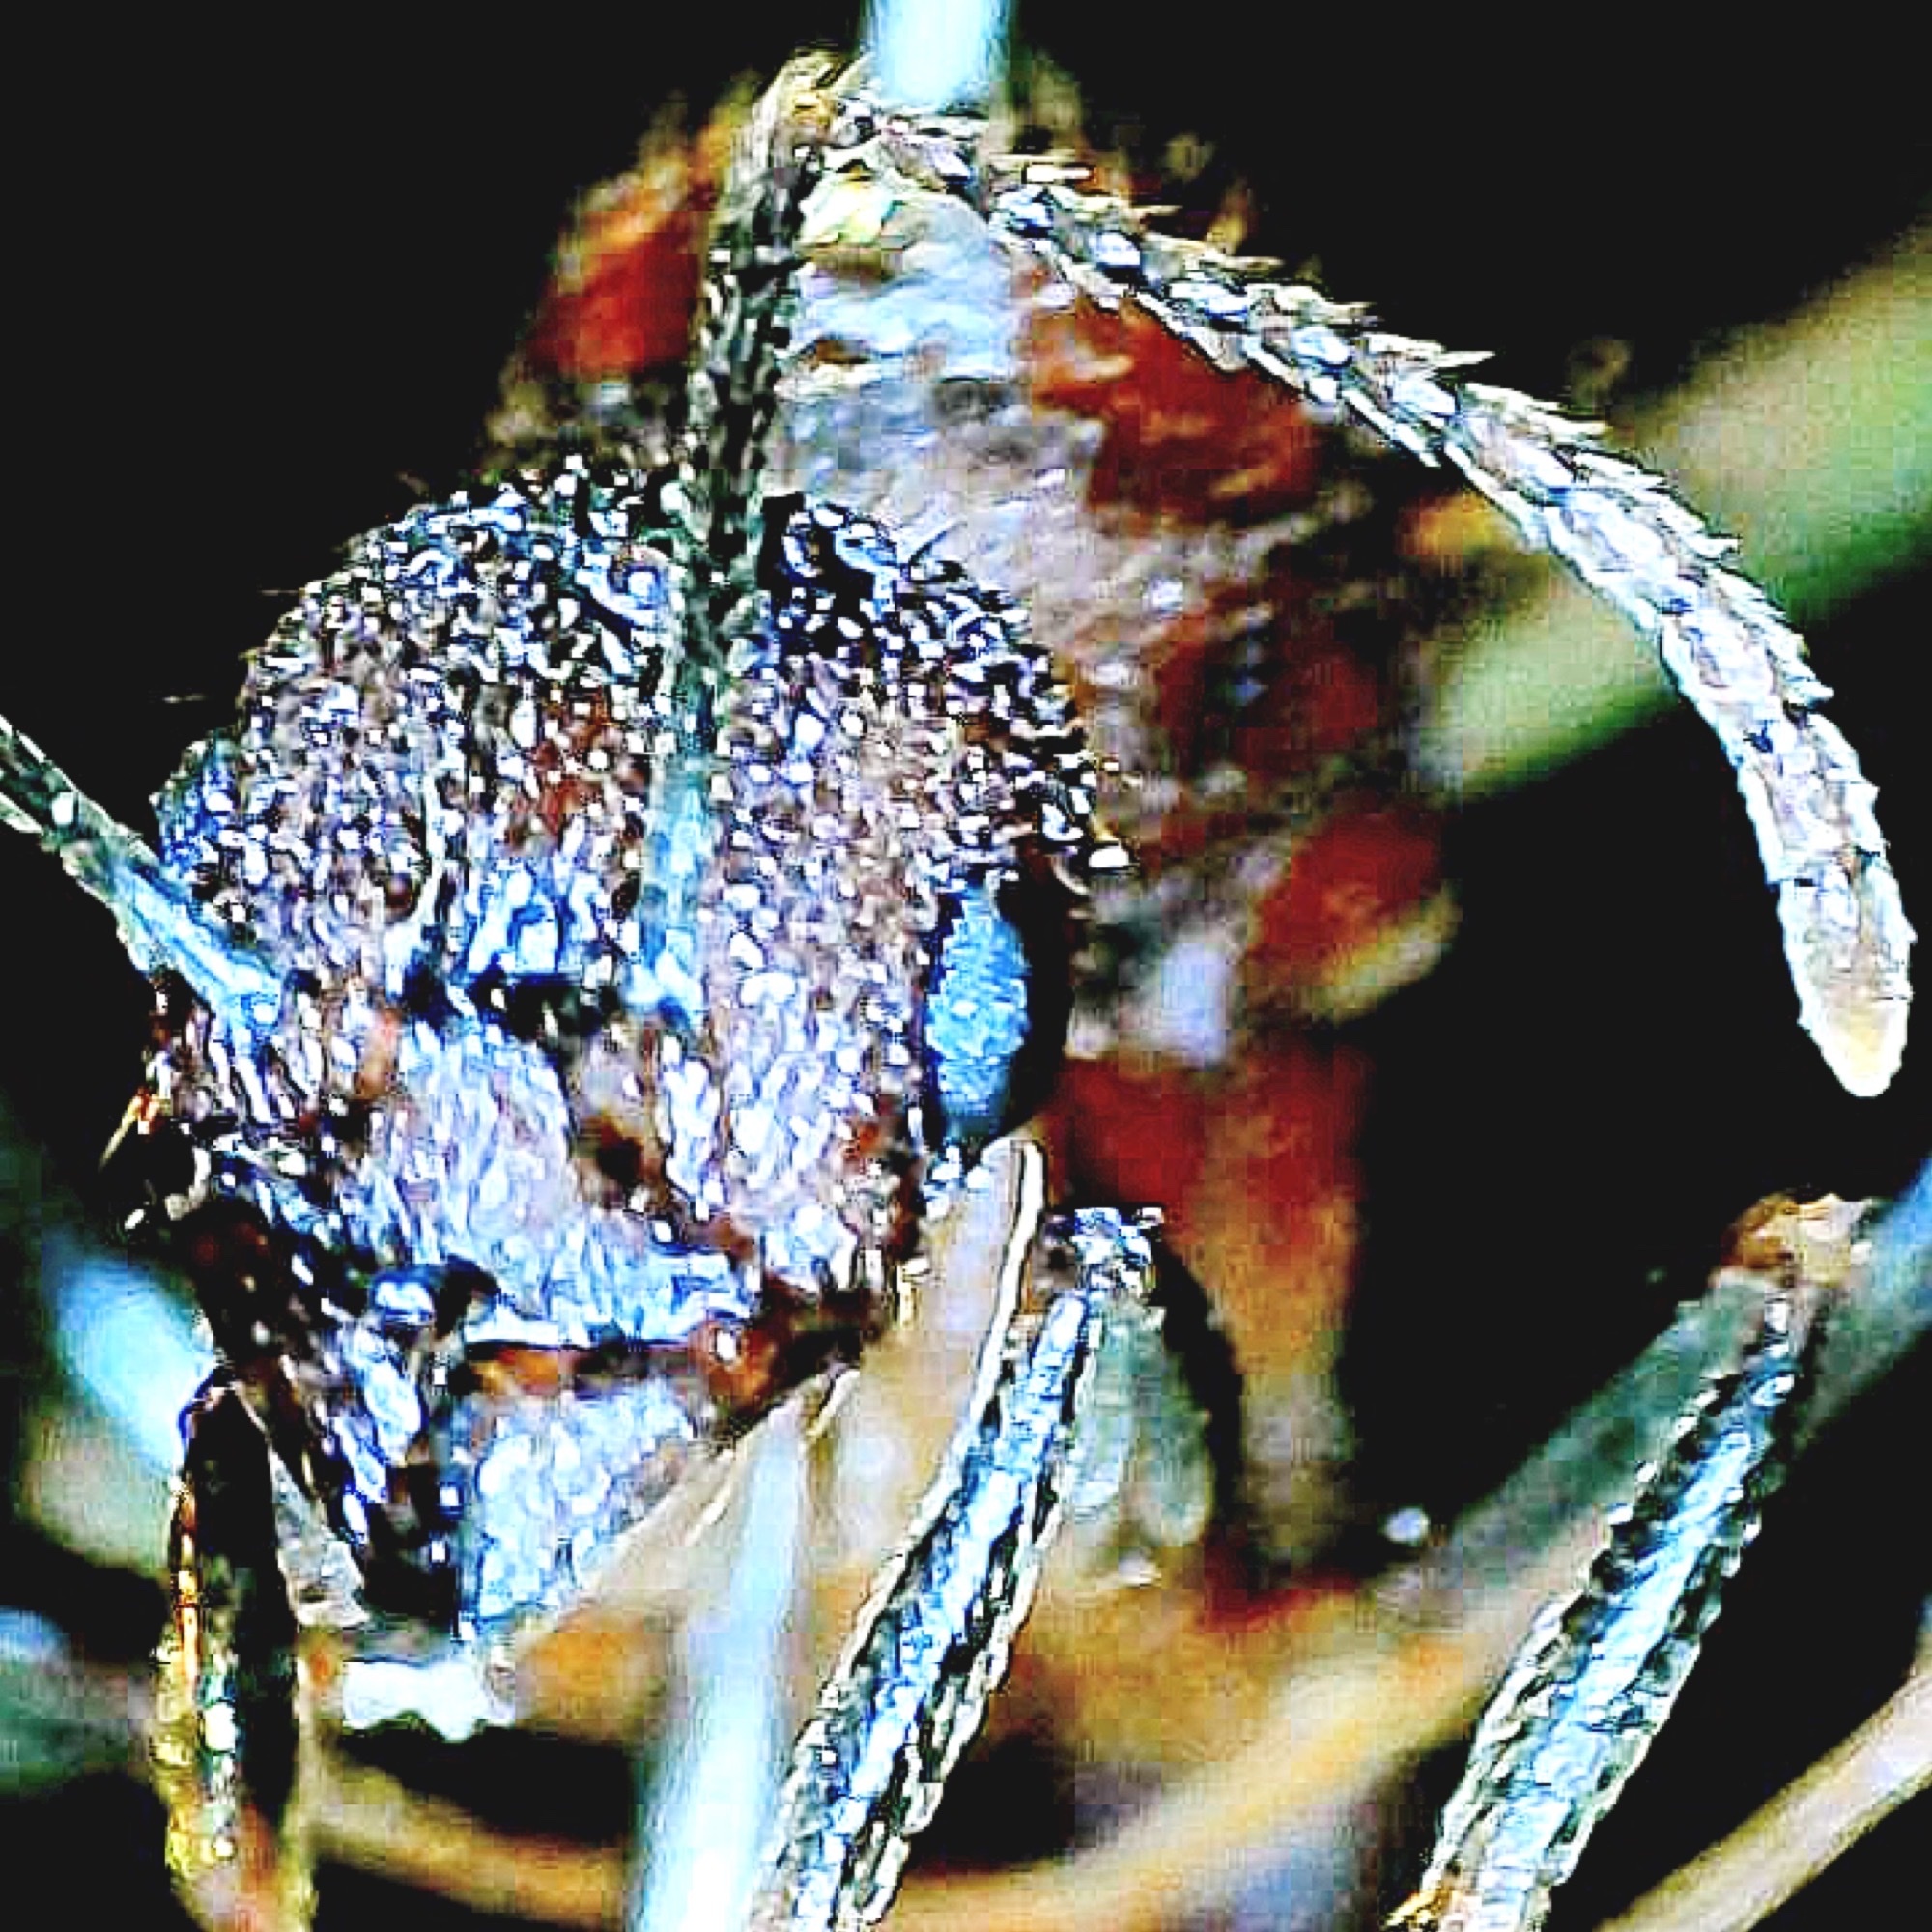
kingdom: Animalia
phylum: Arthropoda
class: Insecta
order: Hymenoptera
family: Formicidae
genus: Aphaenogaster
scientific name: Aphaenogaster lamellidens
